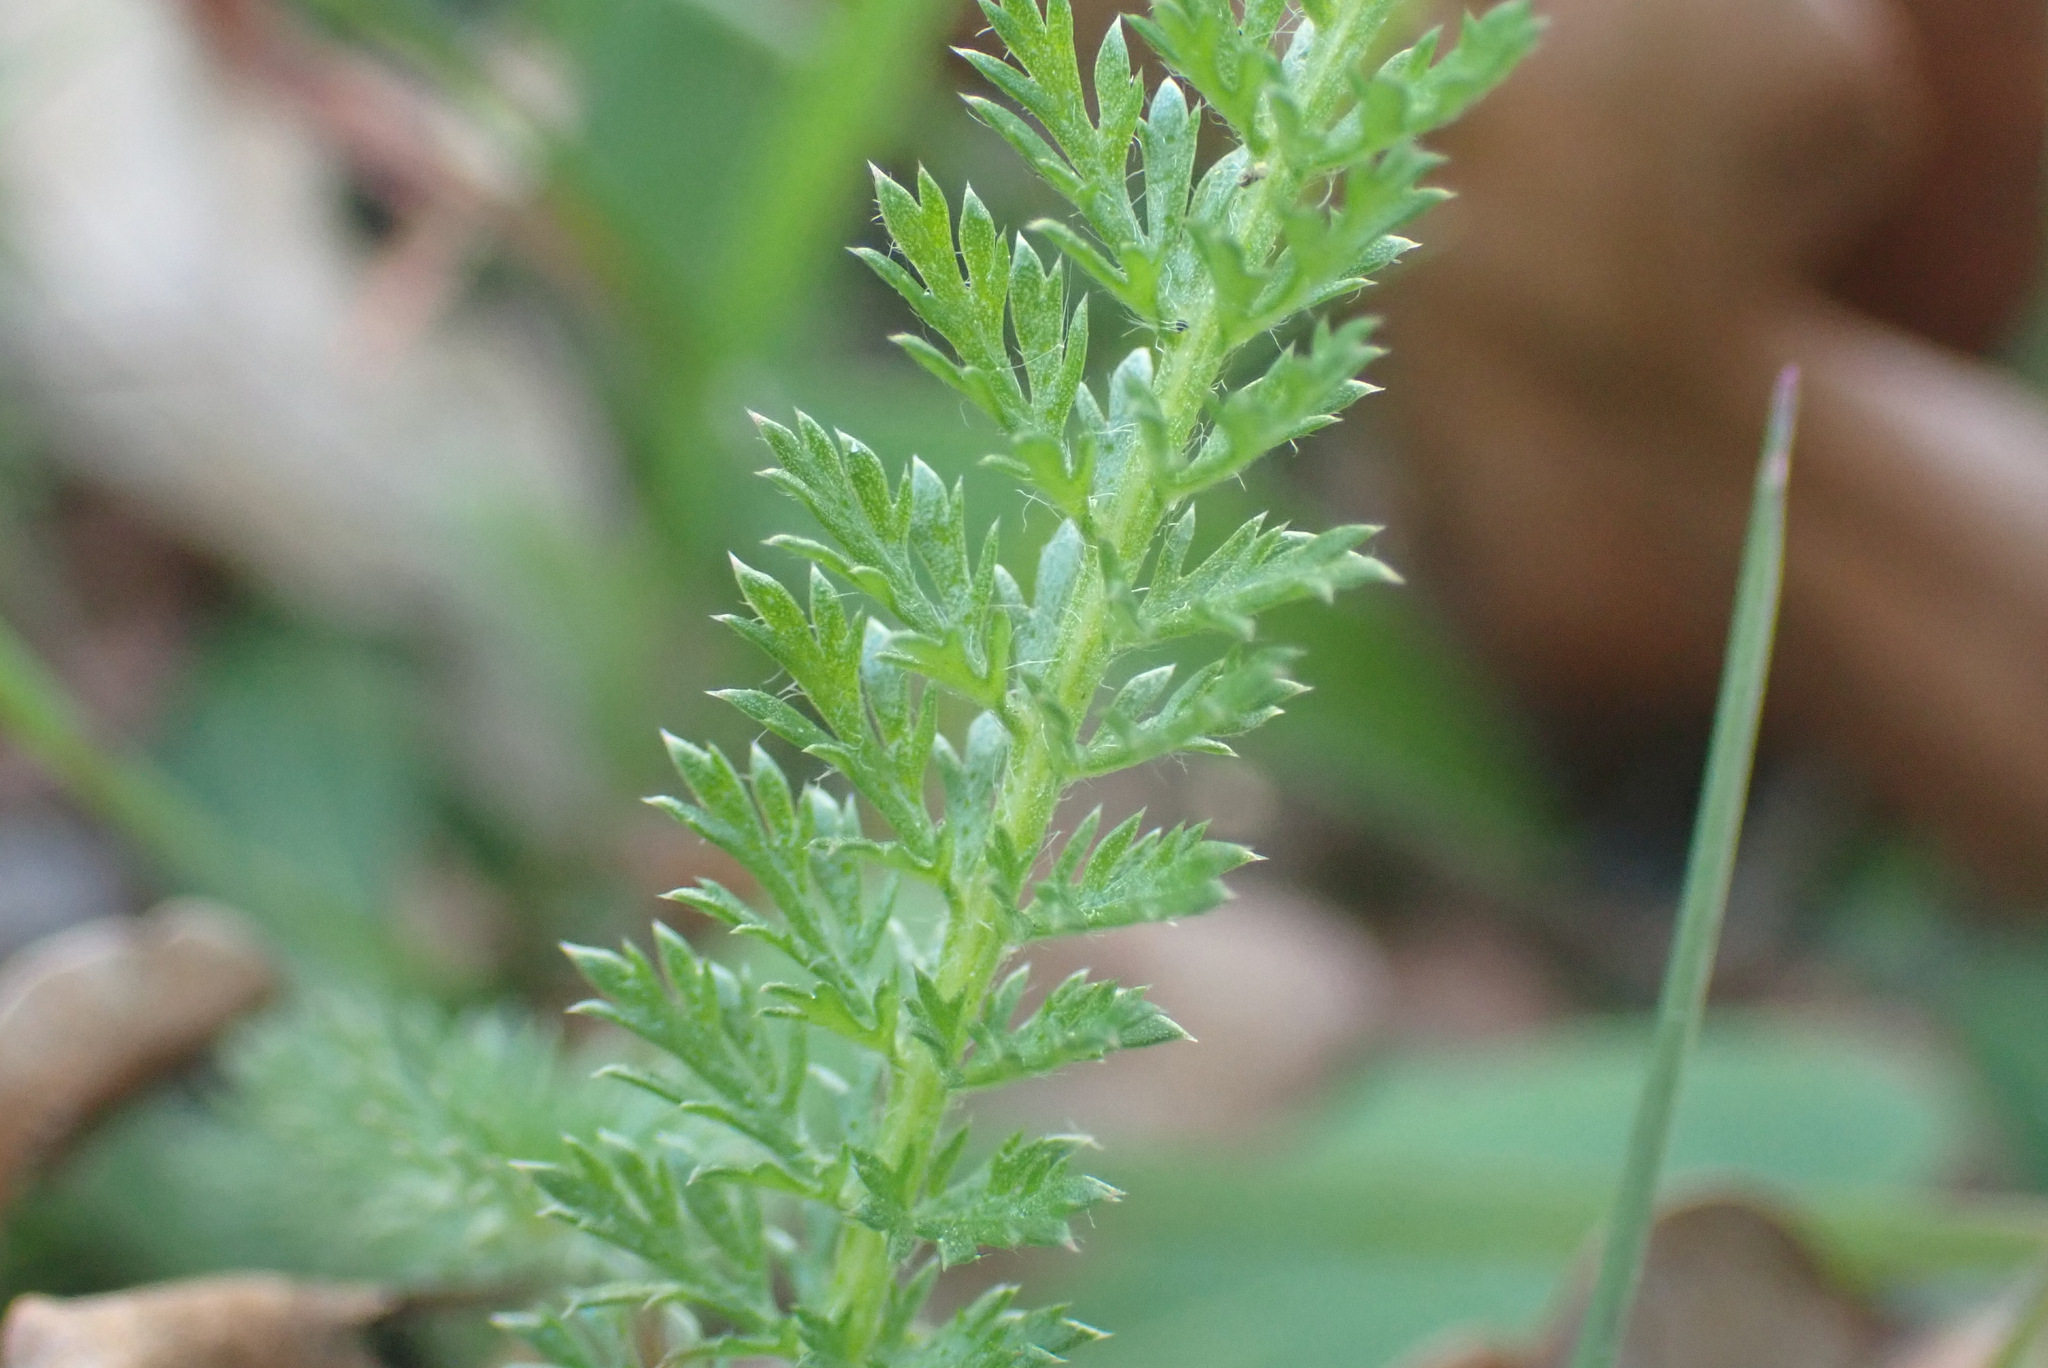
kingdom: Plantae
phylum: Tracheophyta
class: Magnoliopsida
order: Asterales
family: Asteraceae
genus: Achillea
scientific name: Achillea millefolium
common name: Yarrow
